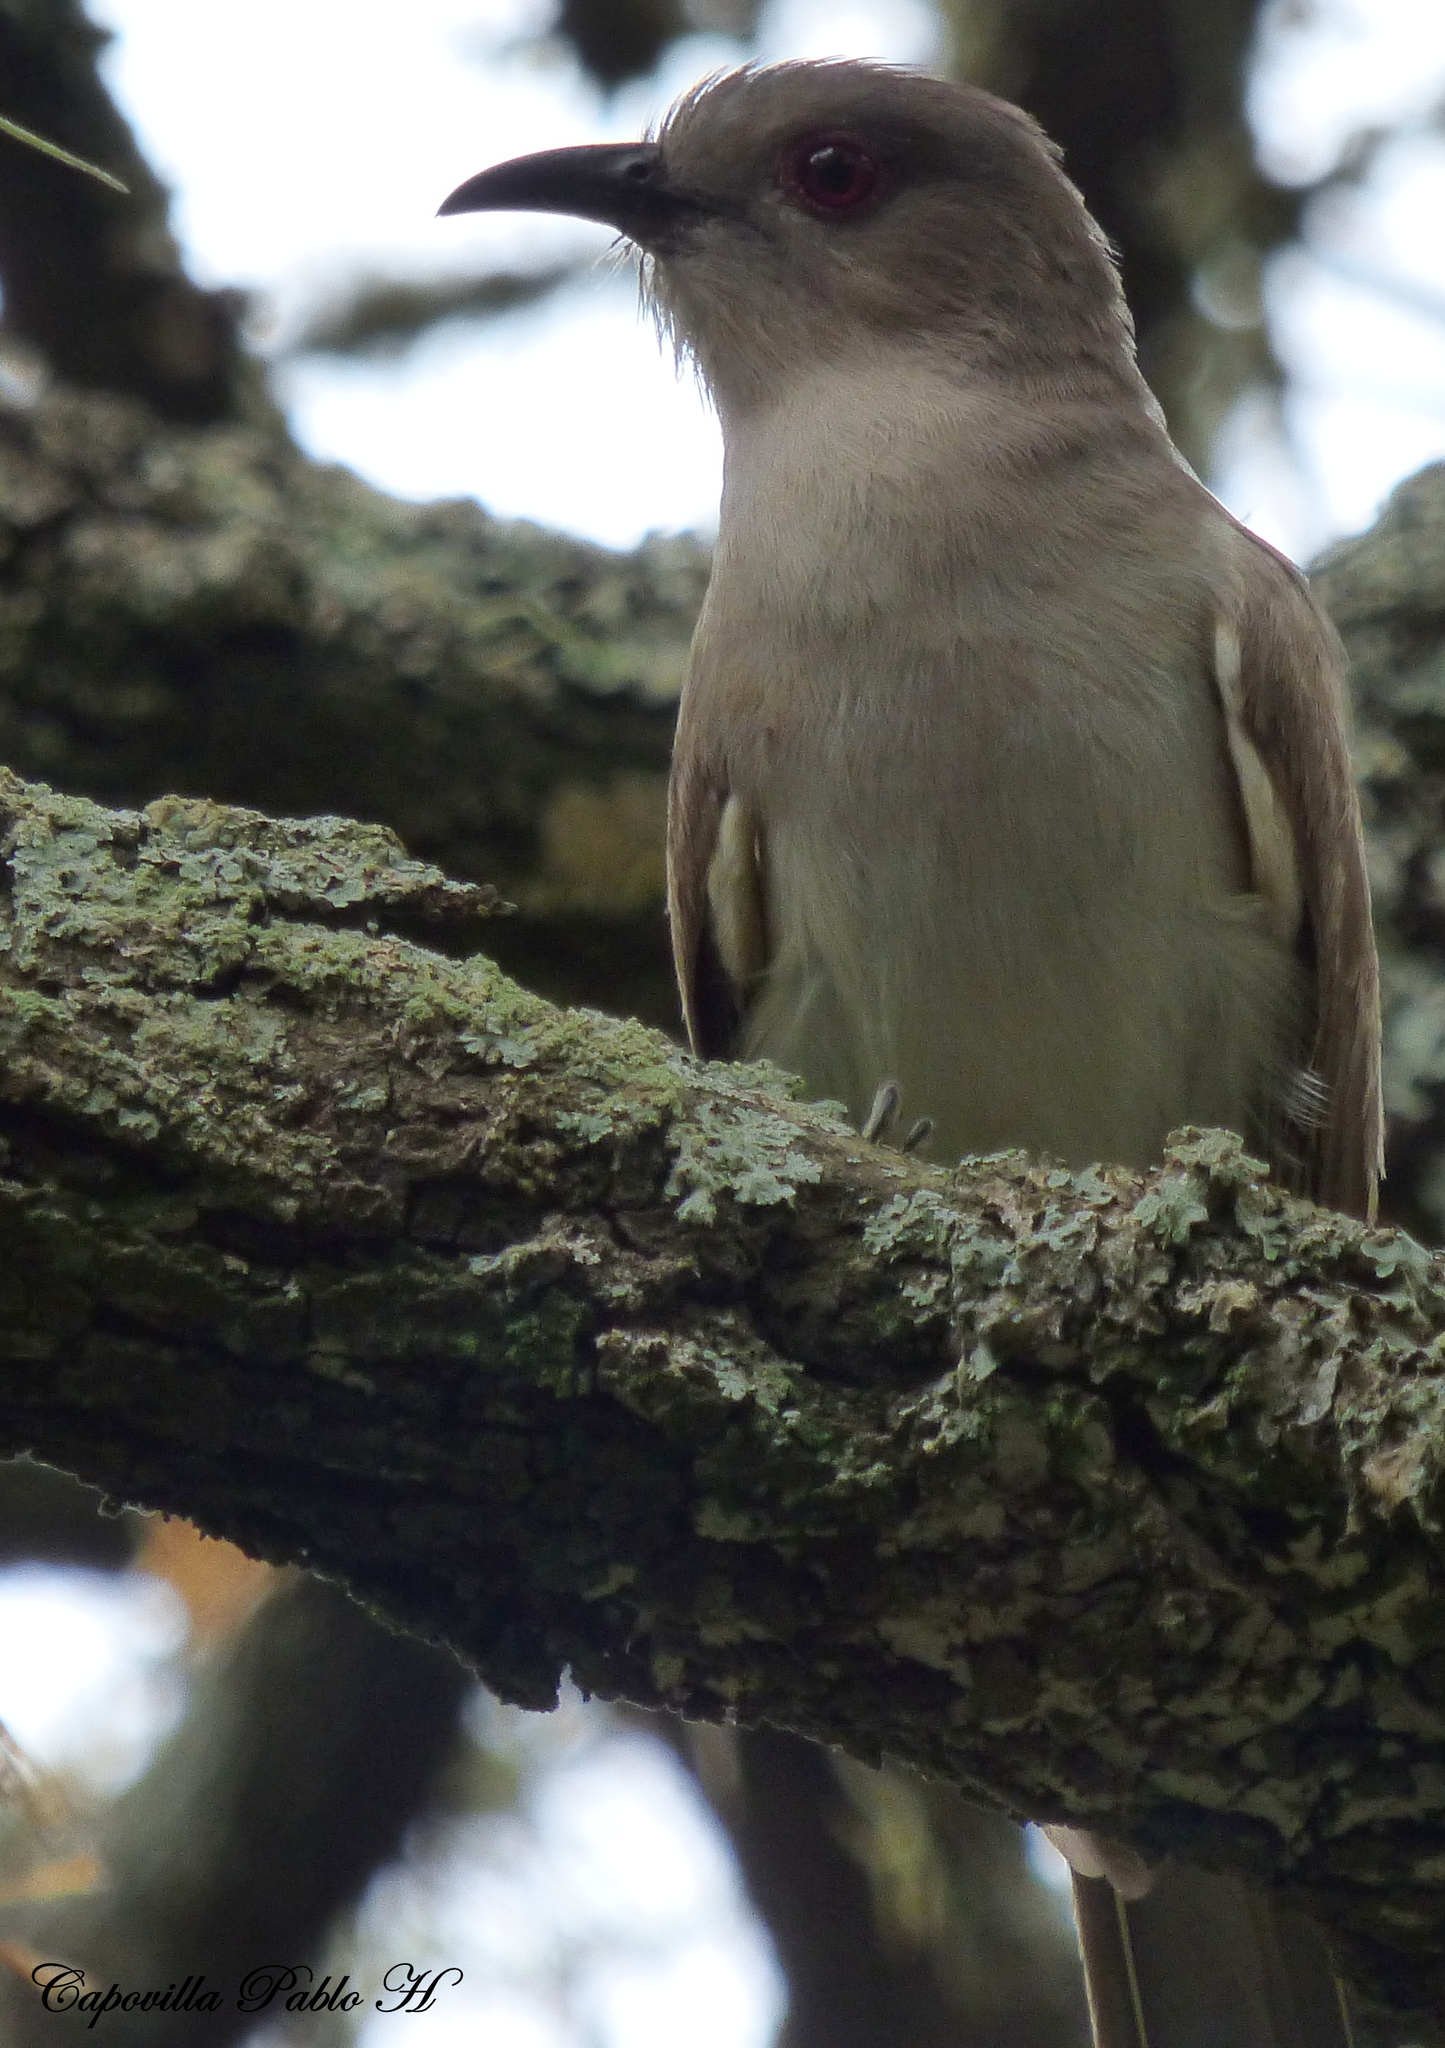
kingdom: Animalia
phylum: Chordata
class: Aves
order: Cuculiformes
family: Cuculidae
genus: Coccyzus
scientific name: Coccyzus cinereus
